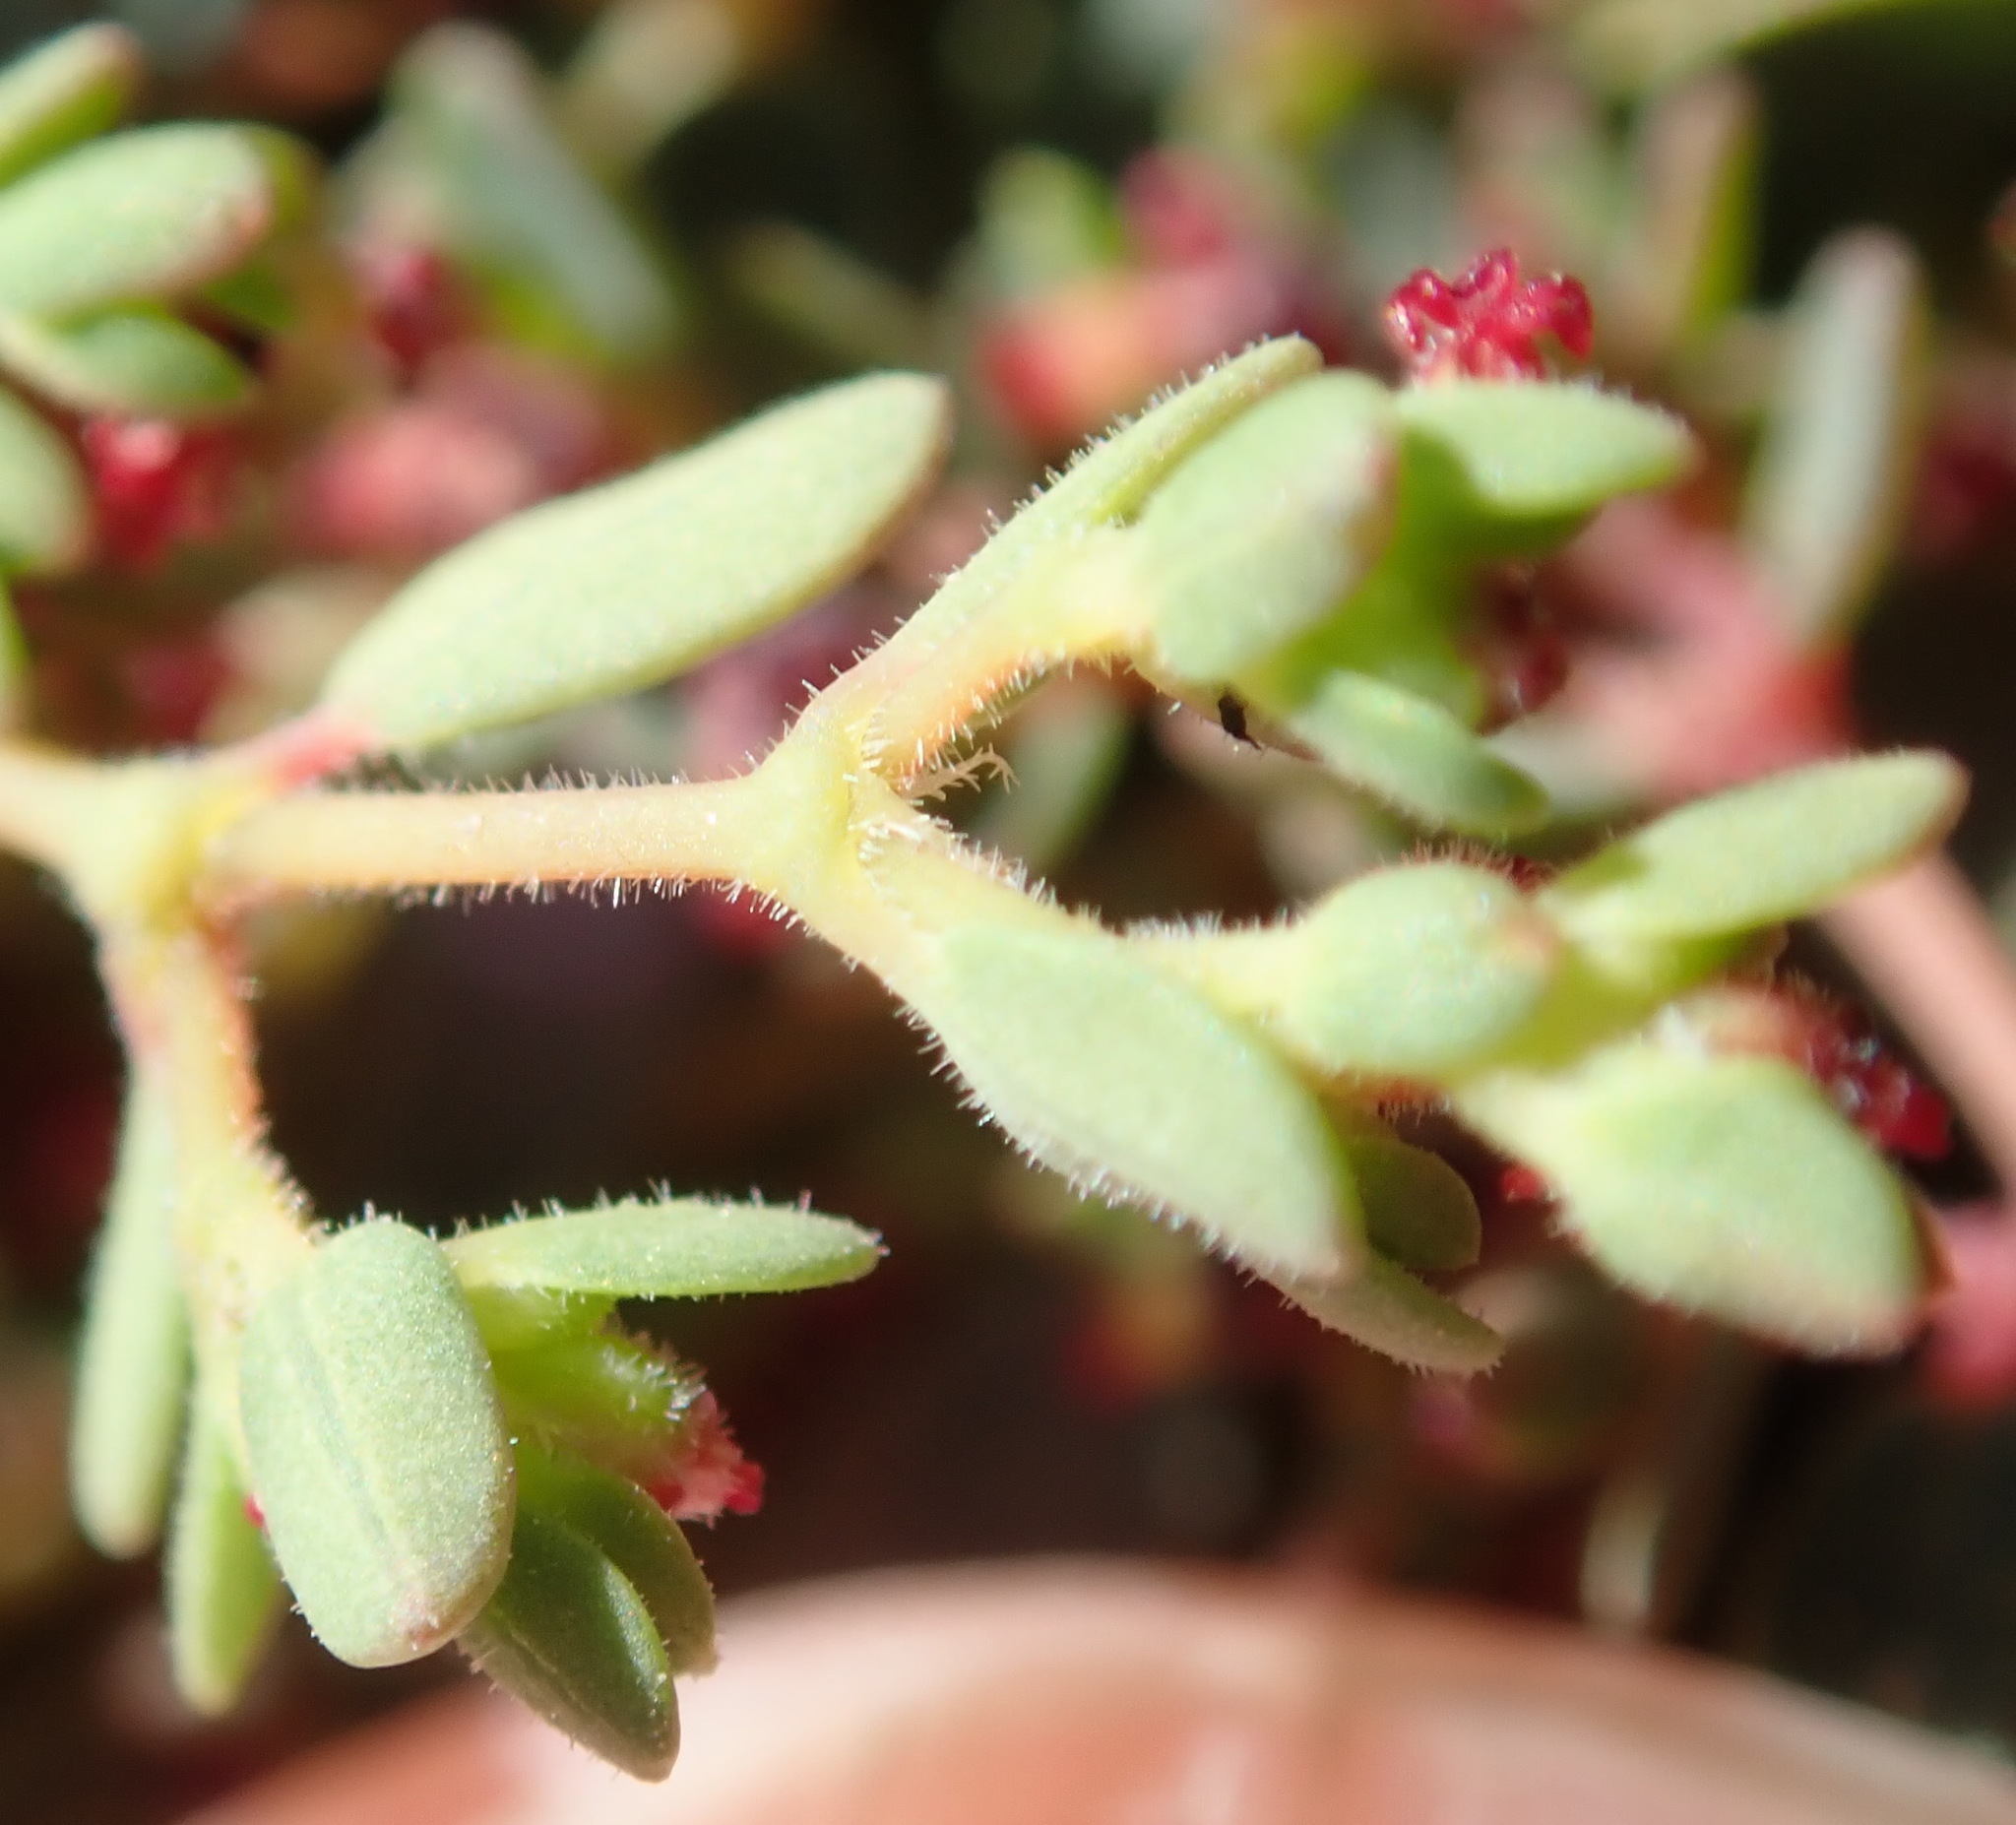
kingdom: Plantae
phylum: Tracheophyta
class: Magnoliopsida
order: Malpighiales
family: Euphorbiaceae
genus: Euphorbia
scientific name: Euphorbia polycarpa
